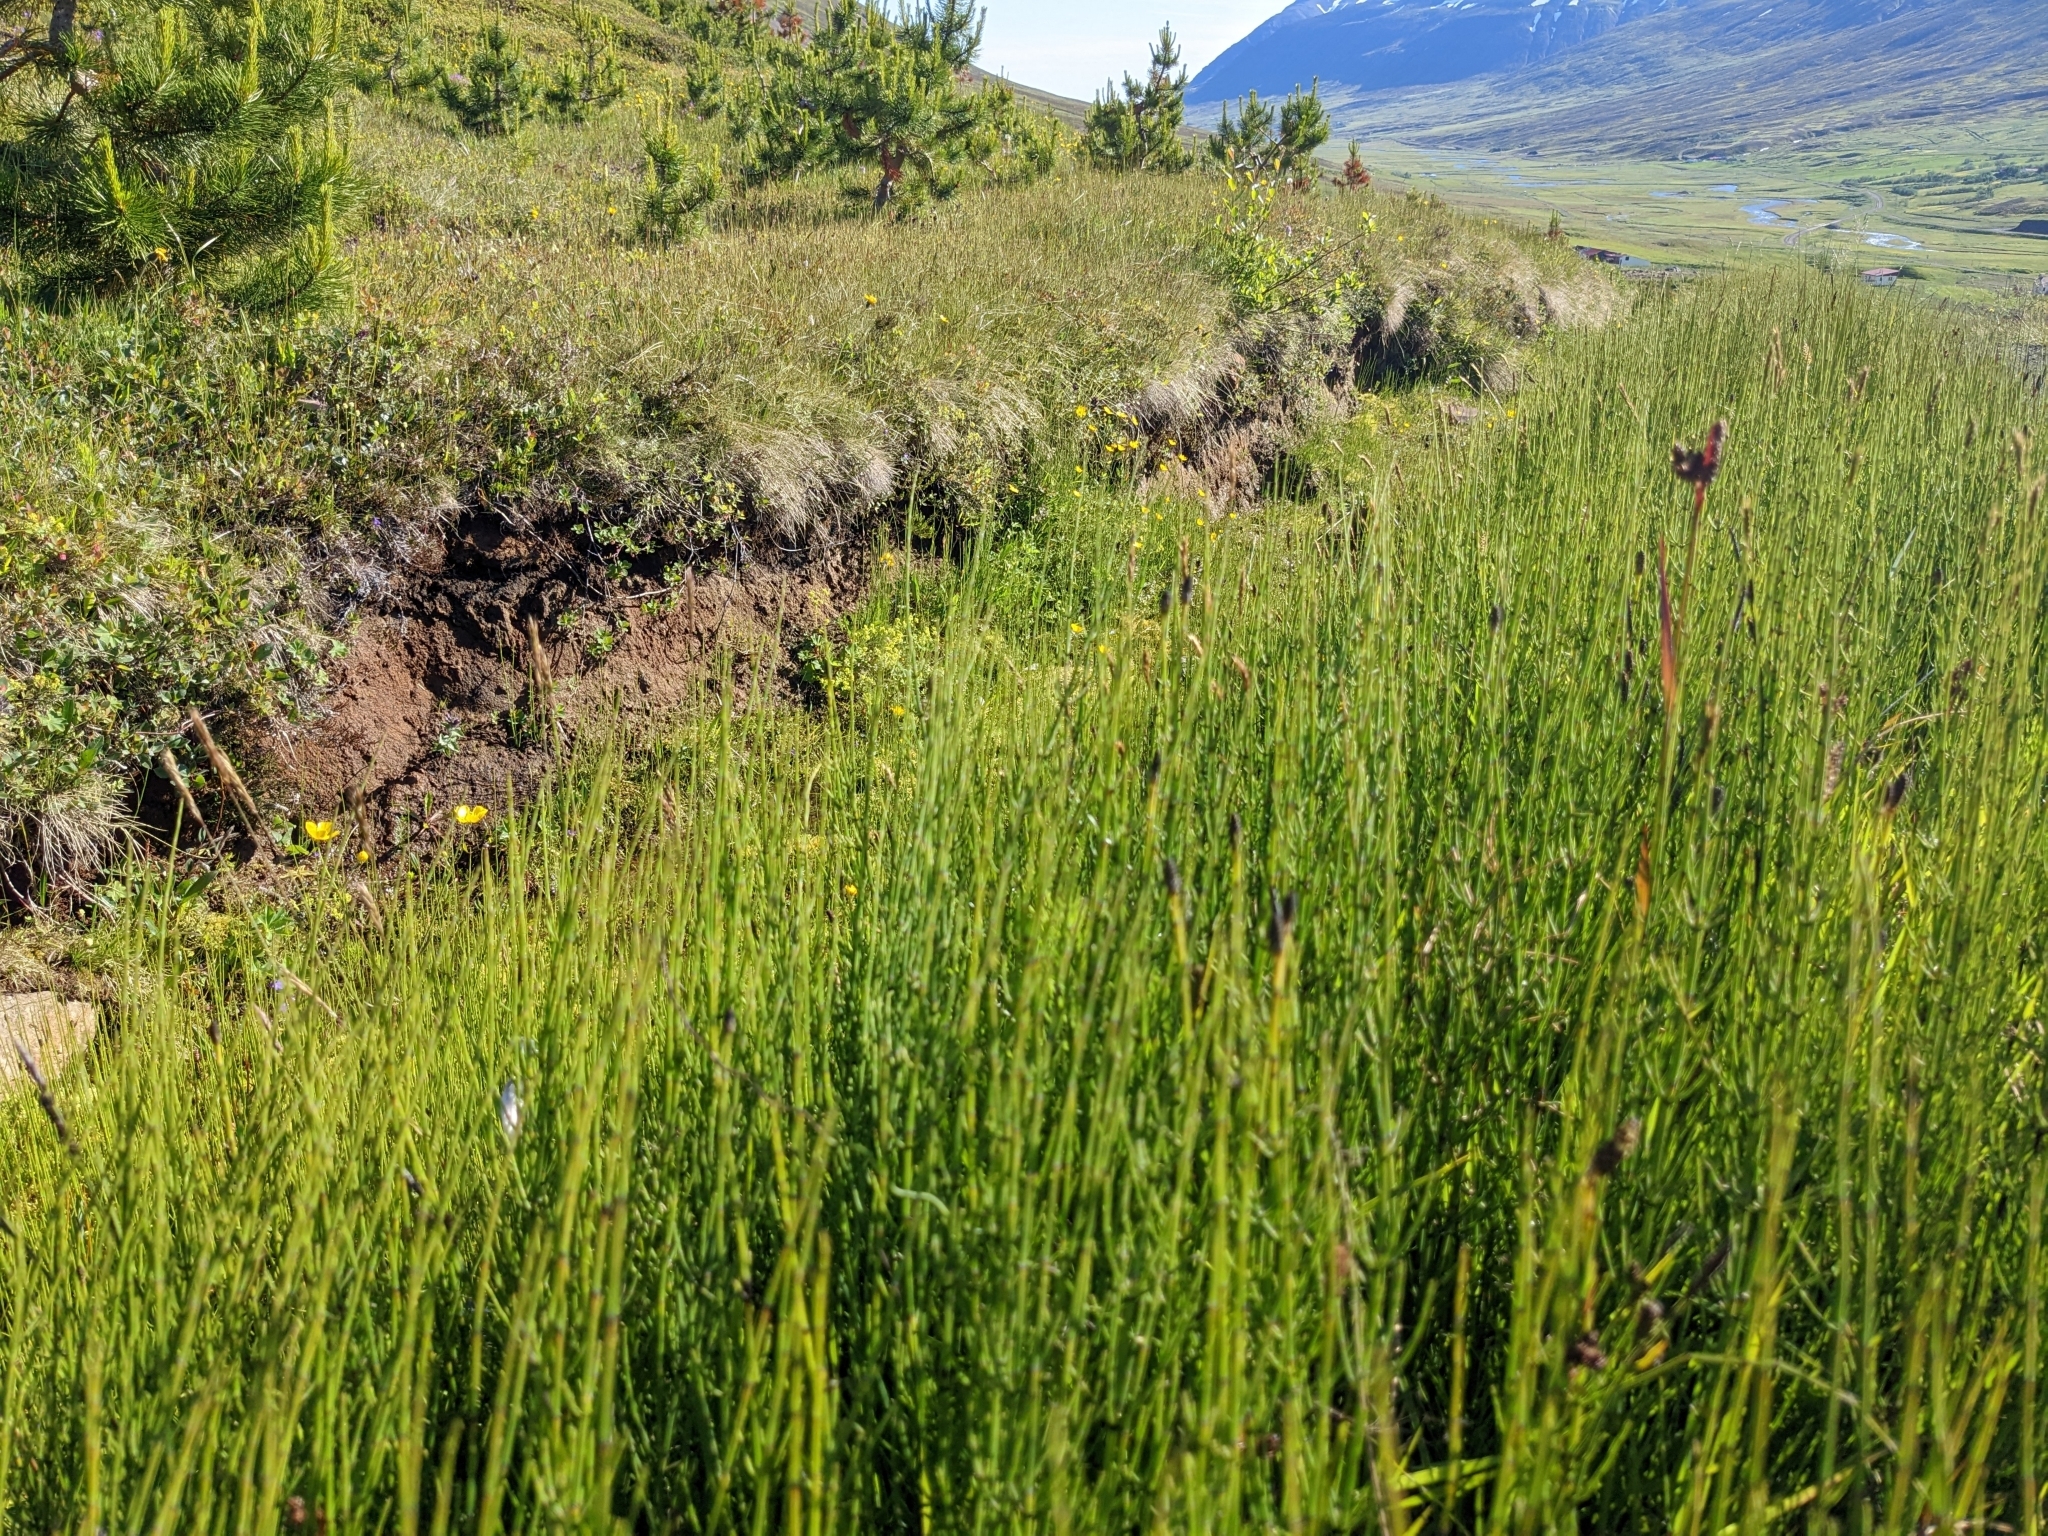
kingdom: Plantae
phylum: Tracheophyta
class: Polypodiopsida
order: Equisetales
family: Equisetaceae
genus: Equisetum
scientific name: Equisetum palustre
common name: Marsh horsetail
